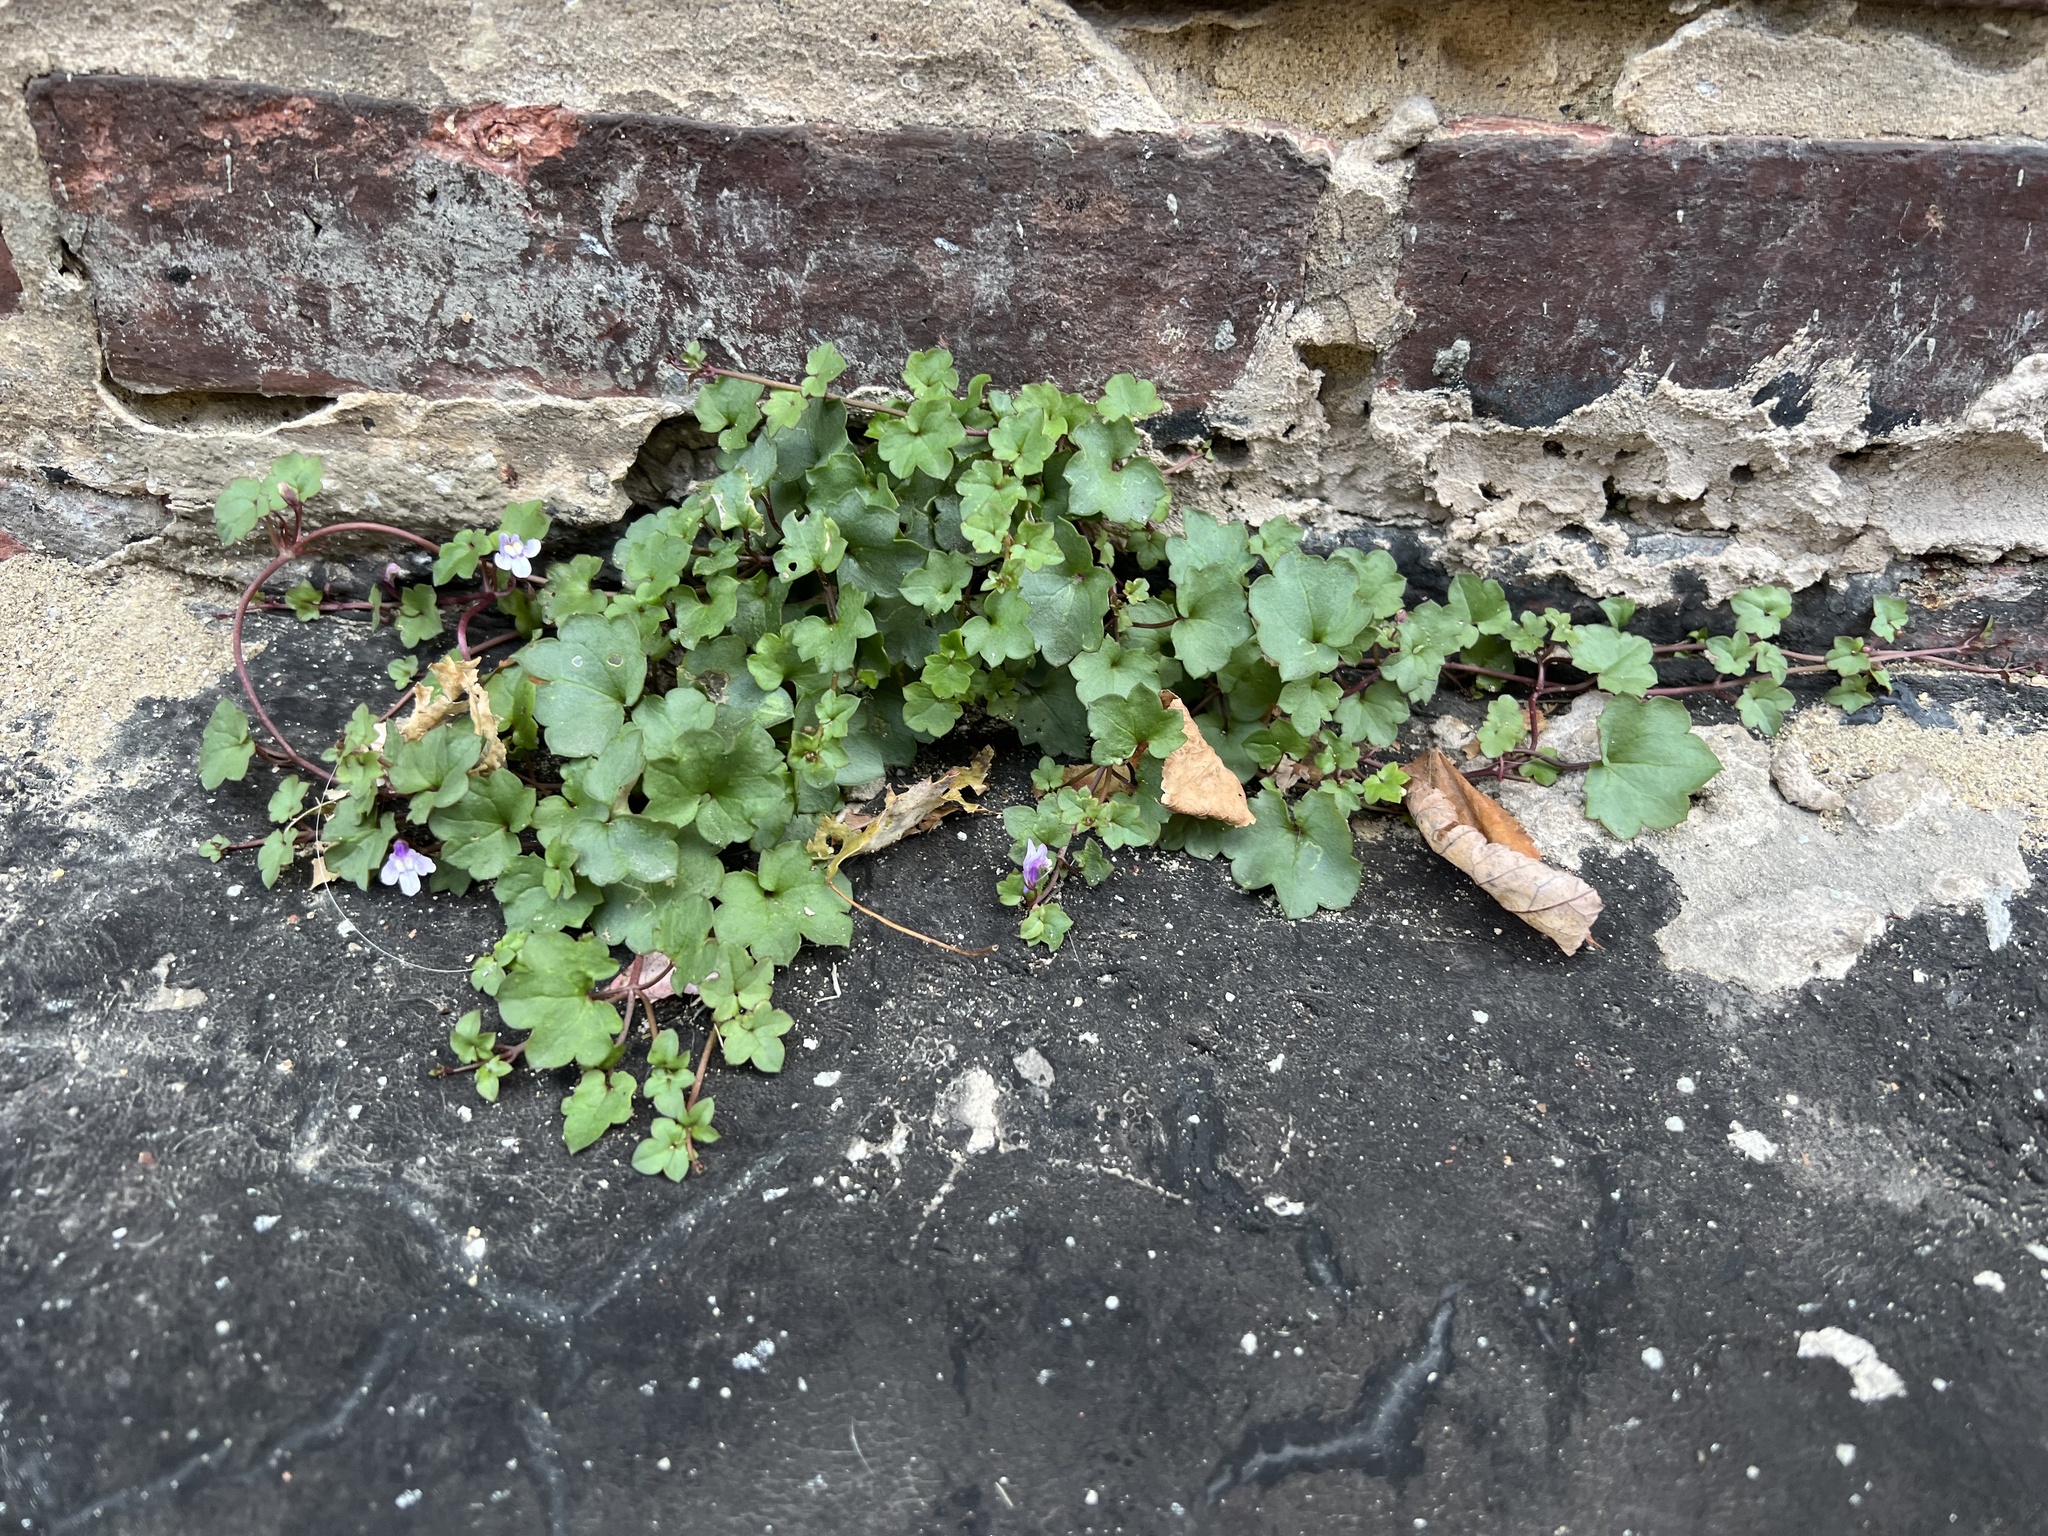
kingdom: Plantae
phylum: Tracheophyta
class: Magnoliopsida
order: Lamiales
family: Plantaginaceae
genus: Cymbalaria
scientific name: Cymbalaria muralis
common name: Ivy-leaved toadflax
